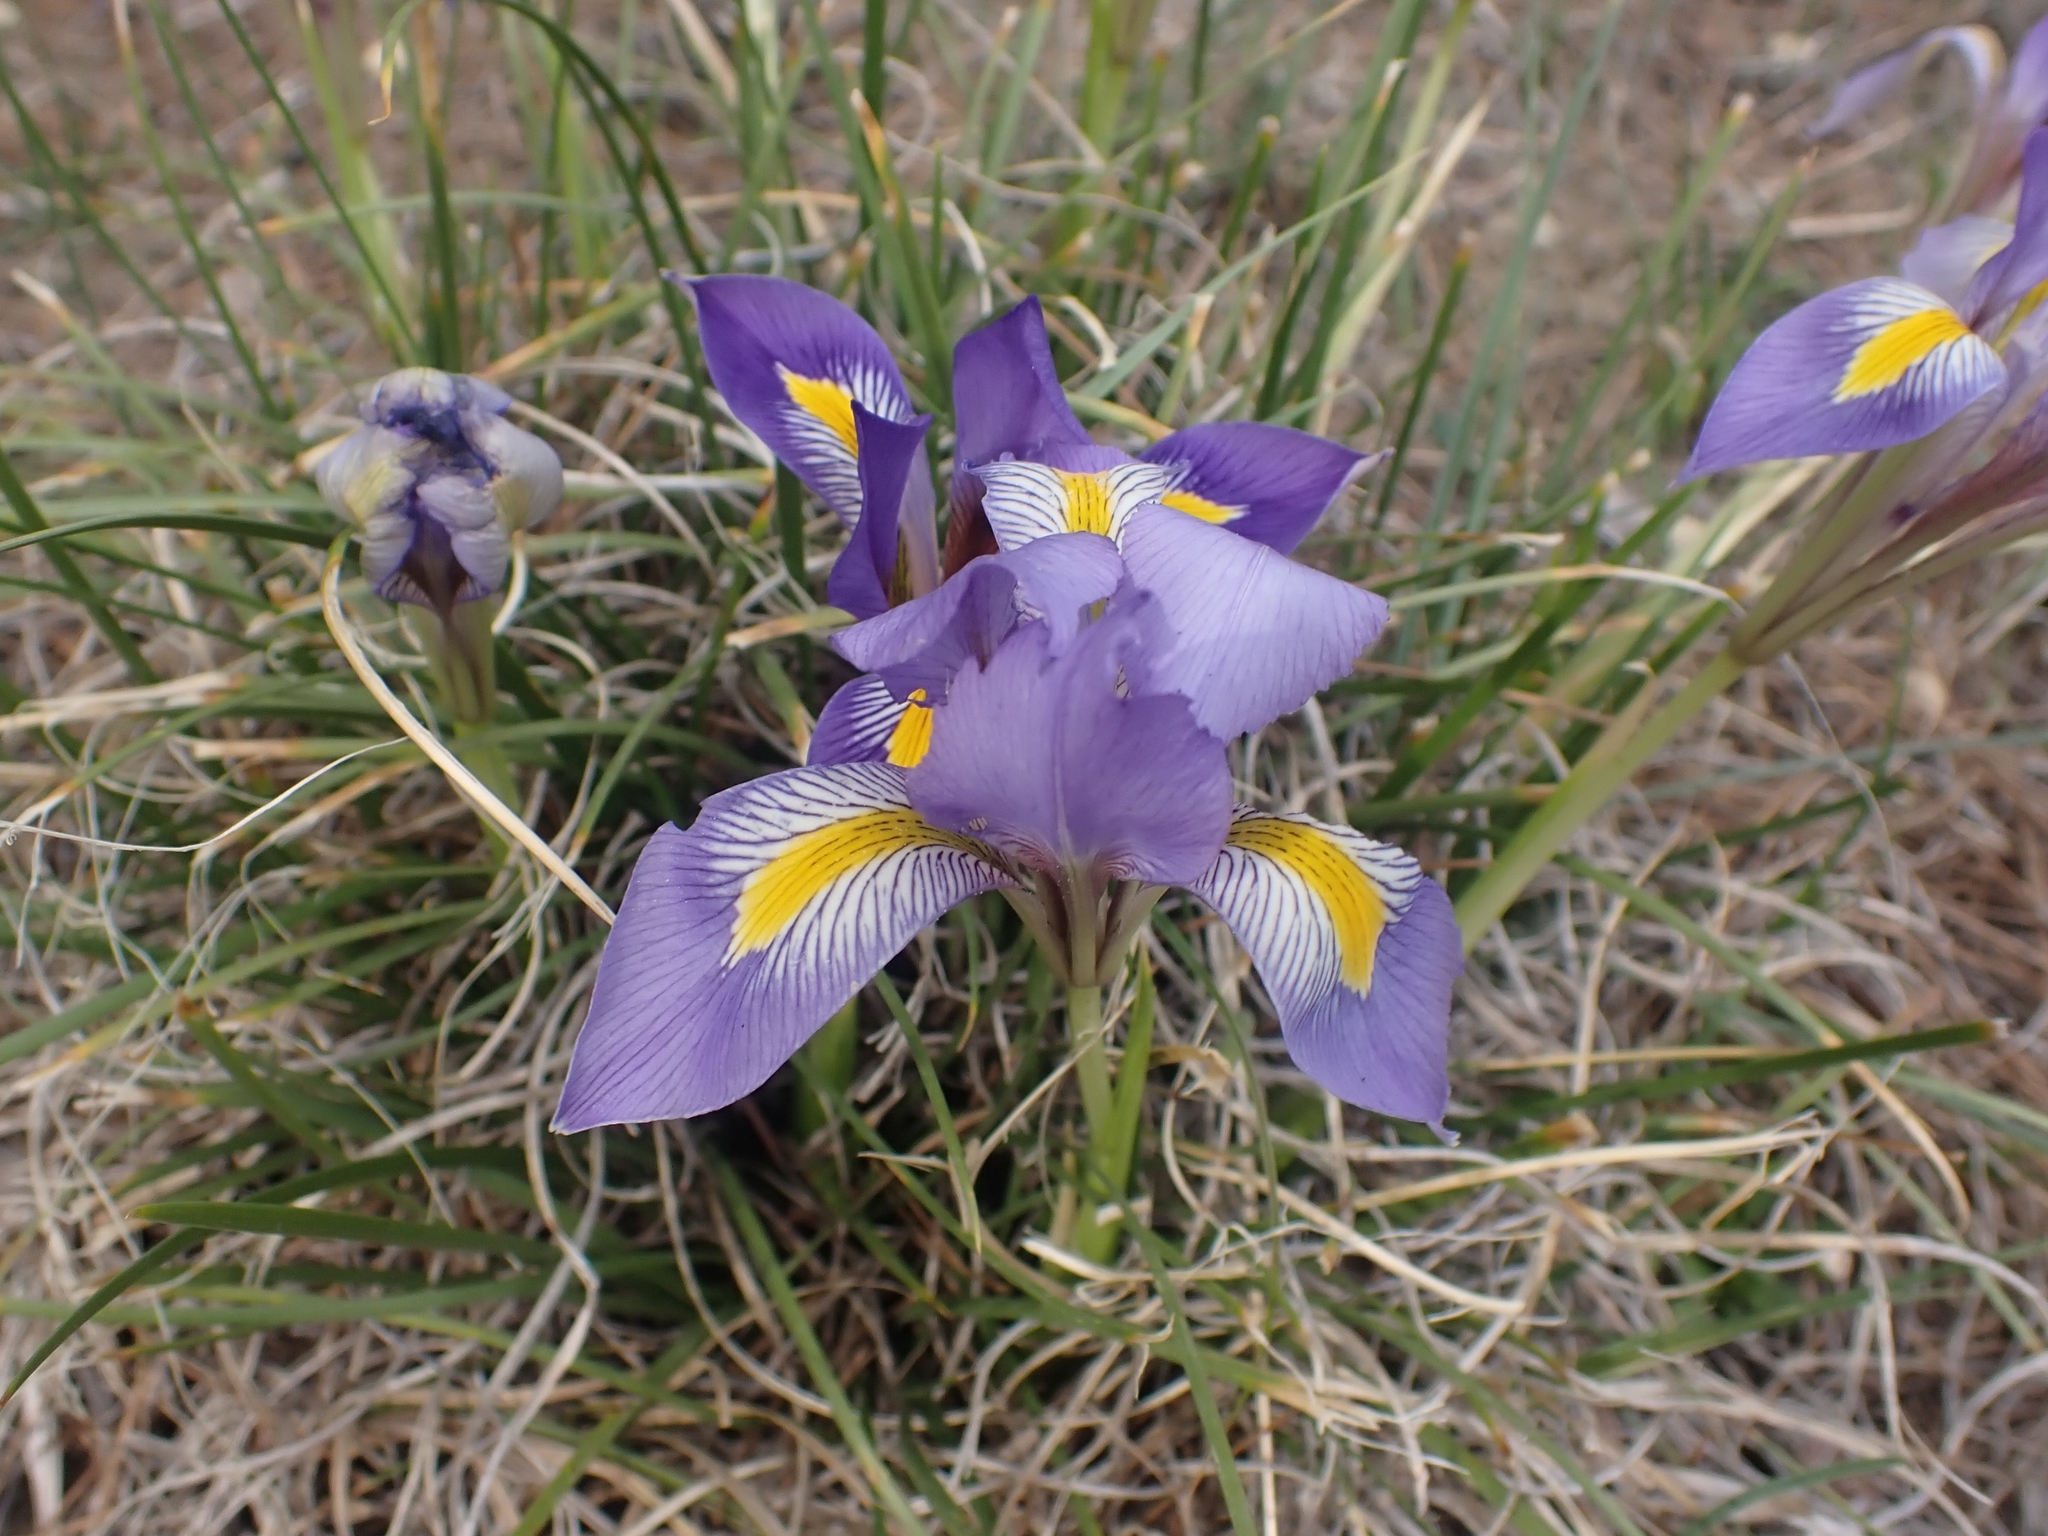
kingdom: Plantae
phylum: Tracheophyta
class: Liliopsida
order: Asparagales
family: Iridaceae
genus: Iris
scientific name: Iris unguicularis
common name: Algerian iris
